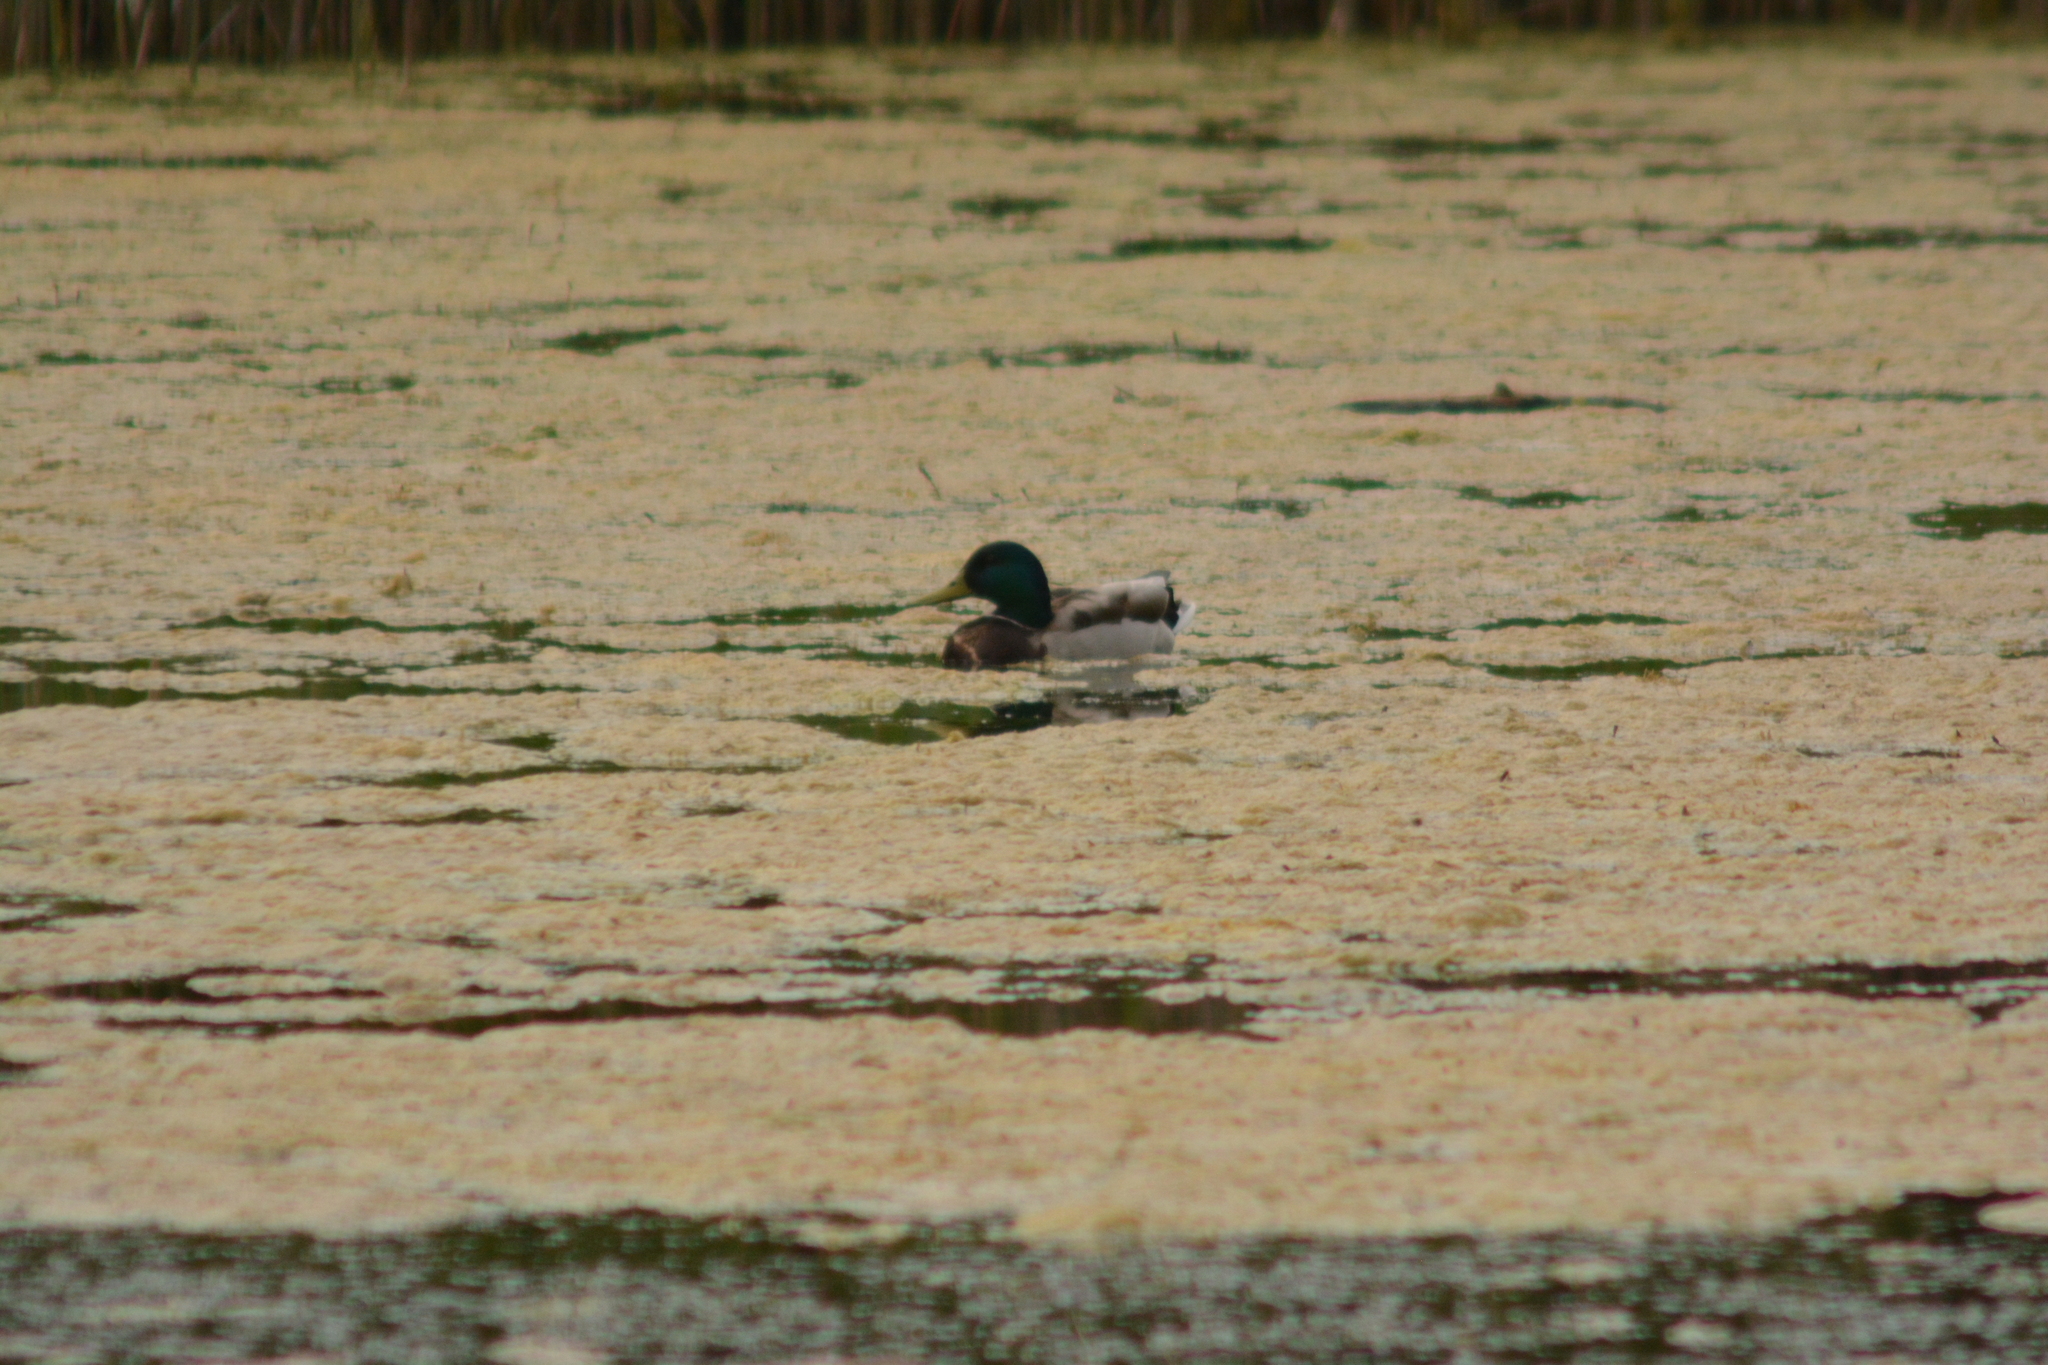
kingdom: Animalia
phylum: Chordata
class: Aves
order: Anseriformes
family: Anatidae
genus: Anas
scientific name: Anas platyrhynchos
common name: Mallard
